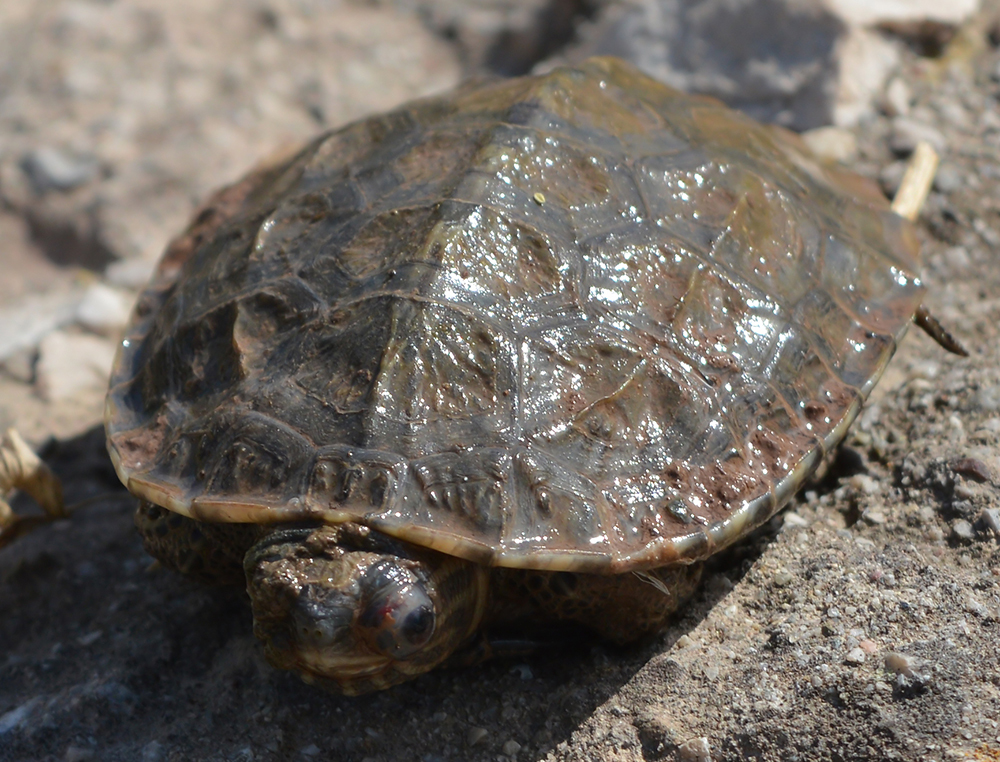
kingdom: Animalia
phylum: Chordata
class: Testudines
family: Geoemydidae
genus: Mauremys
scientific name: Mauremys rivulata
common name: Western caspian turtle
